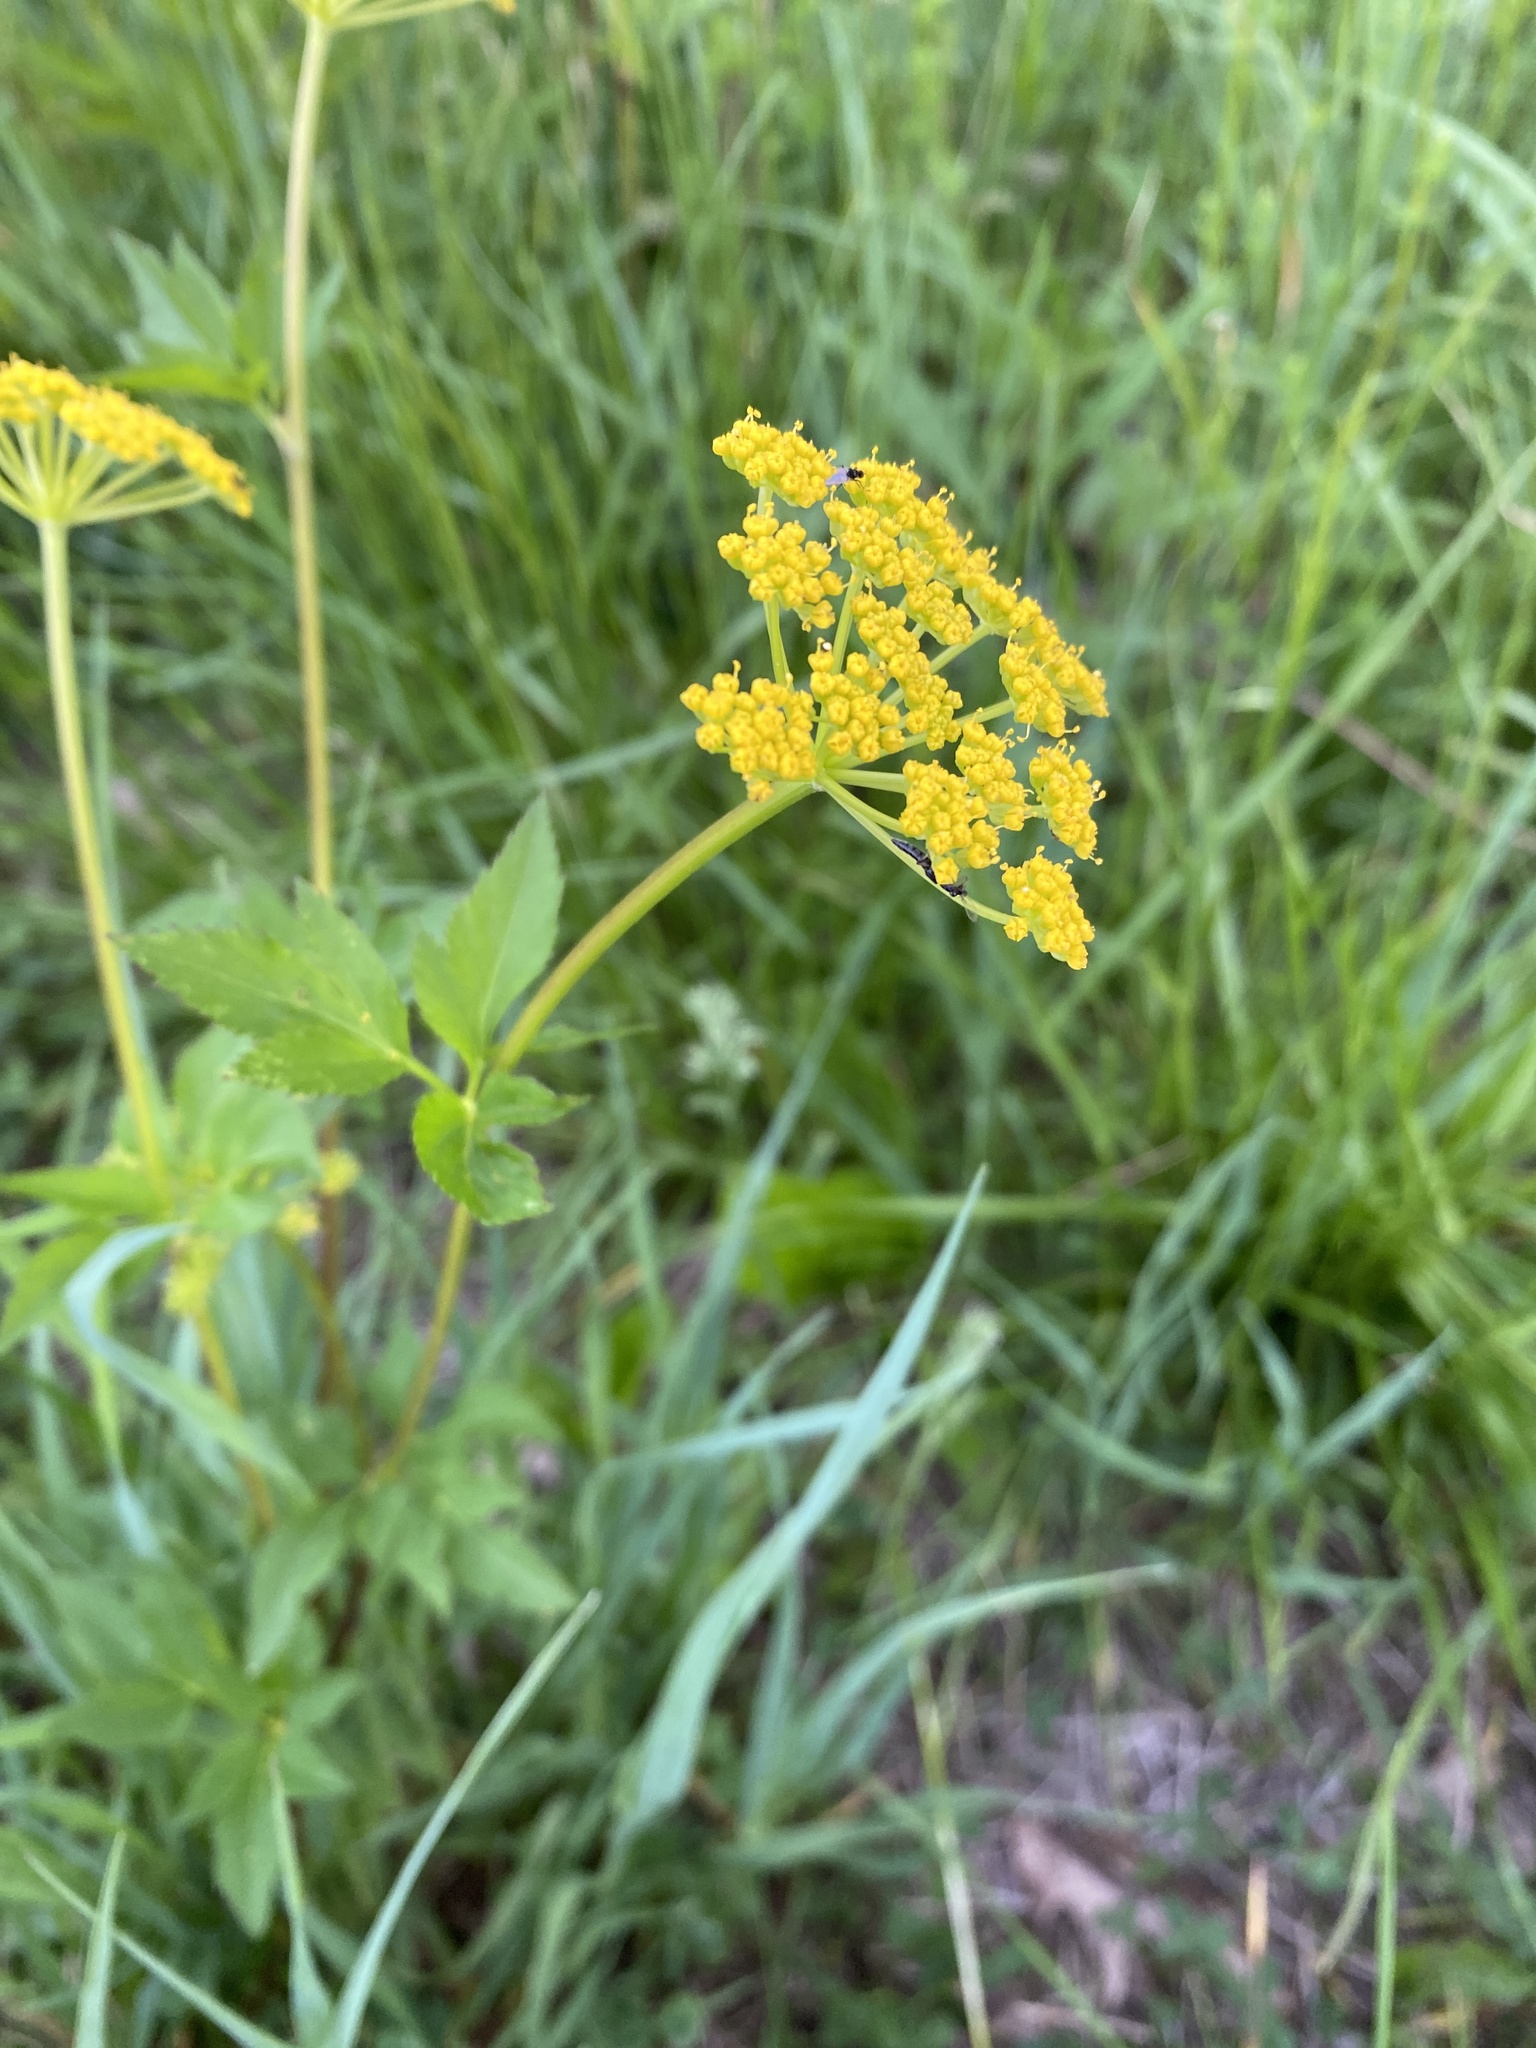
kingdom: Plantae
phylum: Tracheophyta
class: Magnoliopsida
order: Apiales
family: Apiaceae
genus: Zizia
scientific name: Zizia aurea
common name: Golden alexanders
